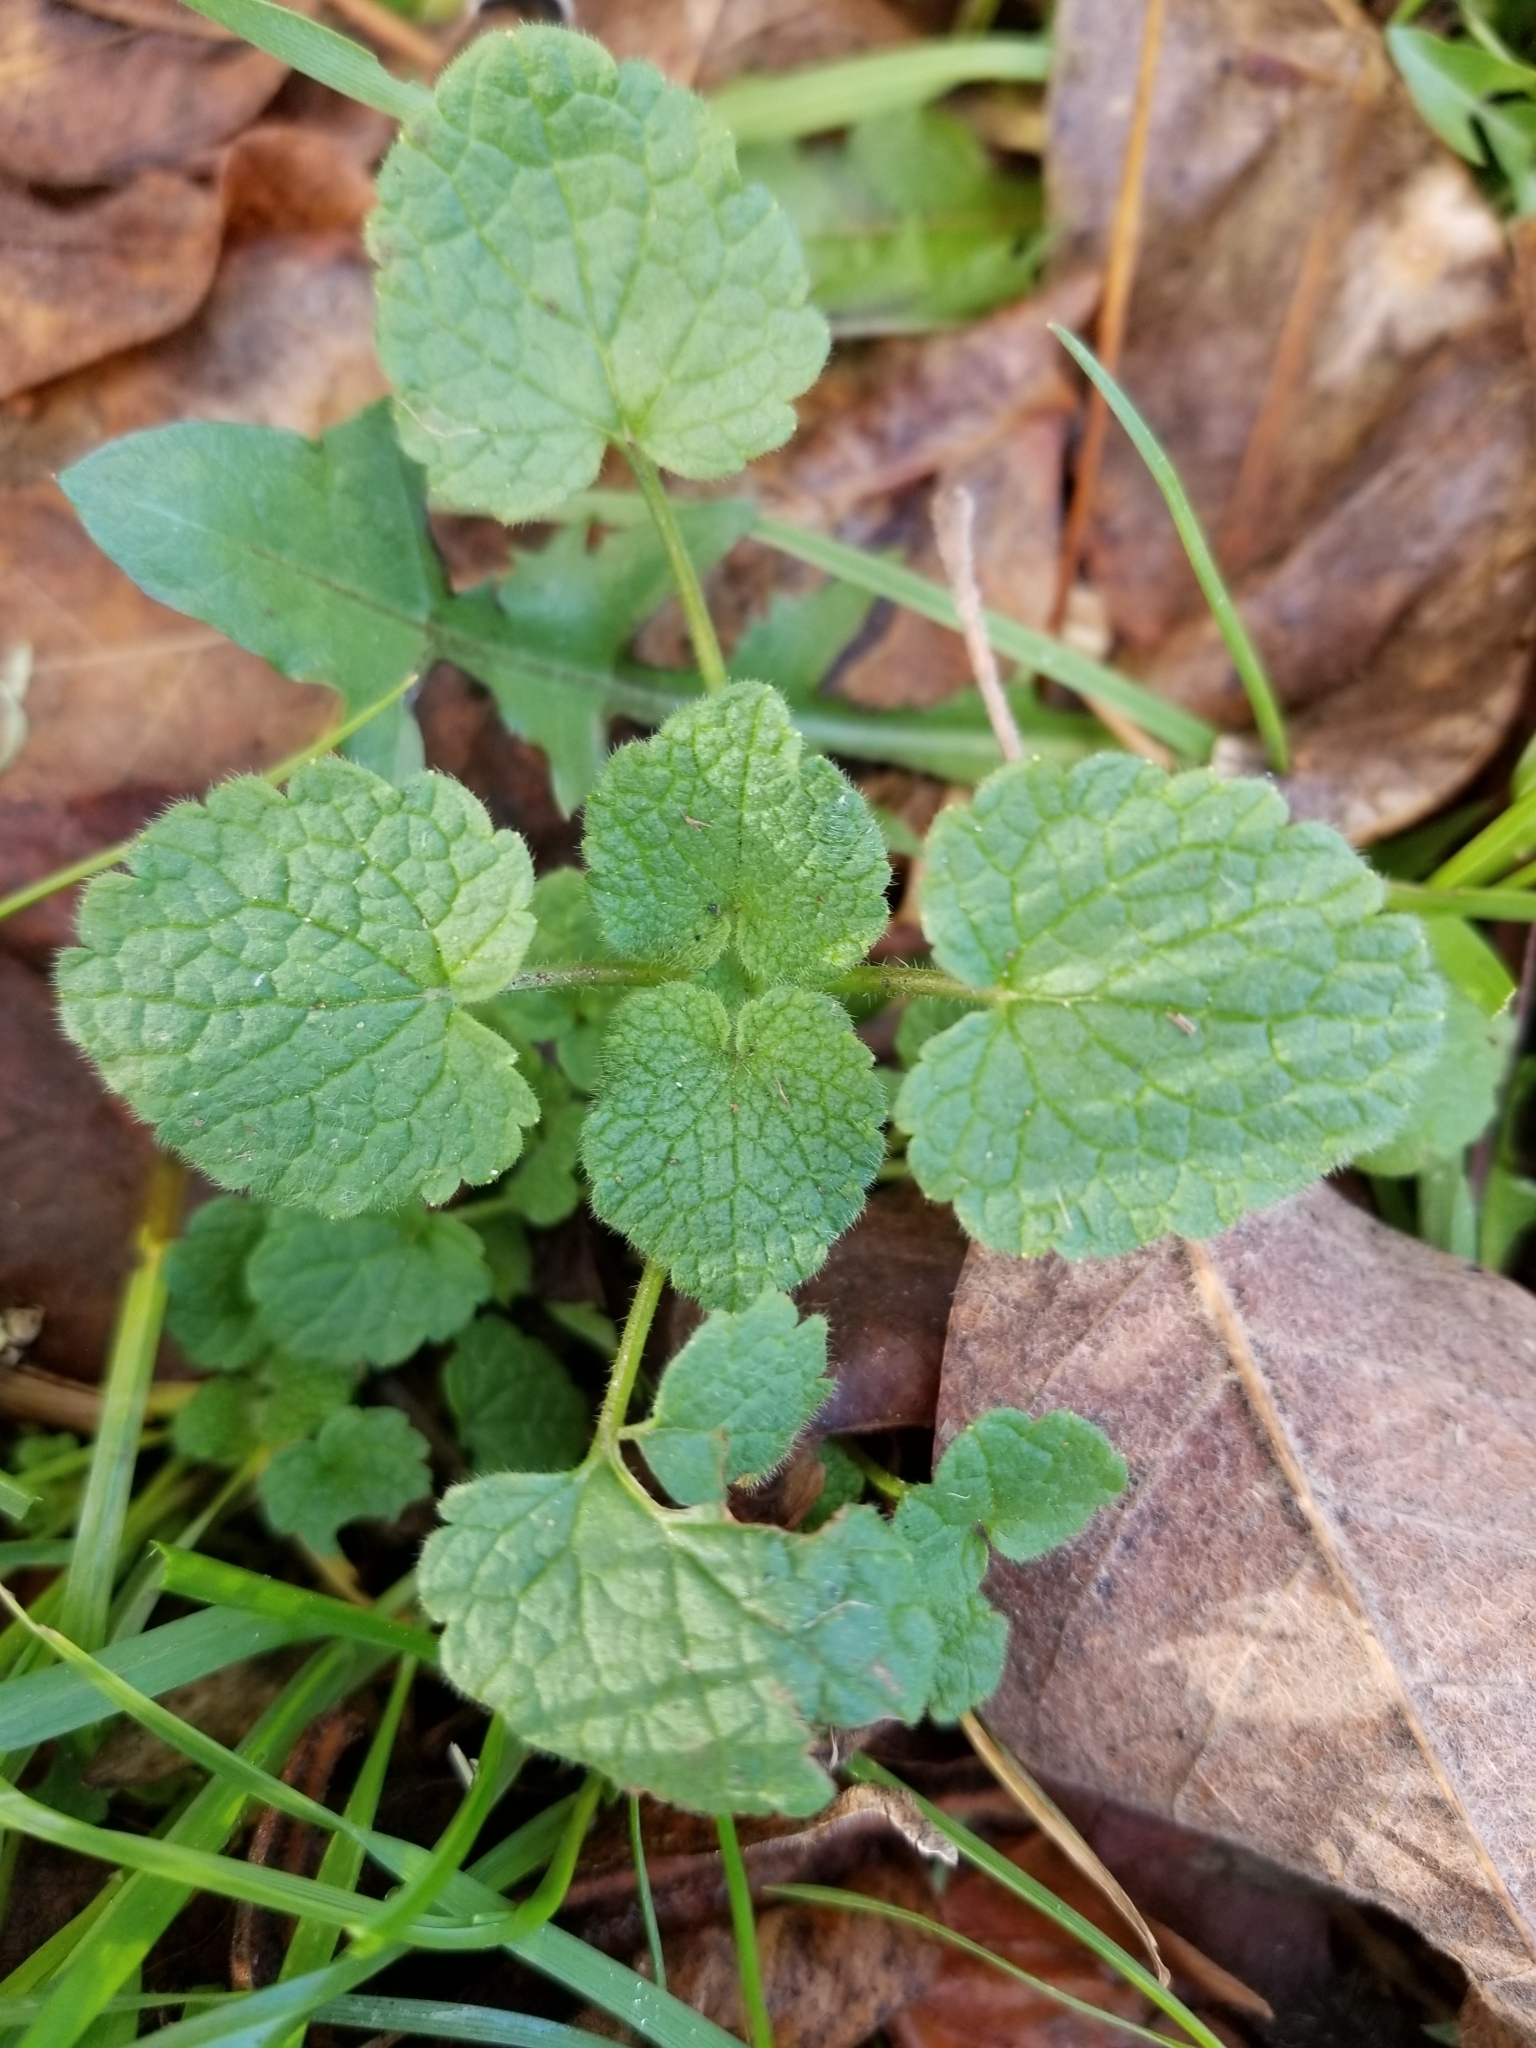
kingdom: Plantae
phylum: Tracheophyta
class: Magnoliopsida
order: Lamiales
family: Lamiaceae
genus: Lamium
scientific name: Lamium purpureum
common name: Red dead-nettle
